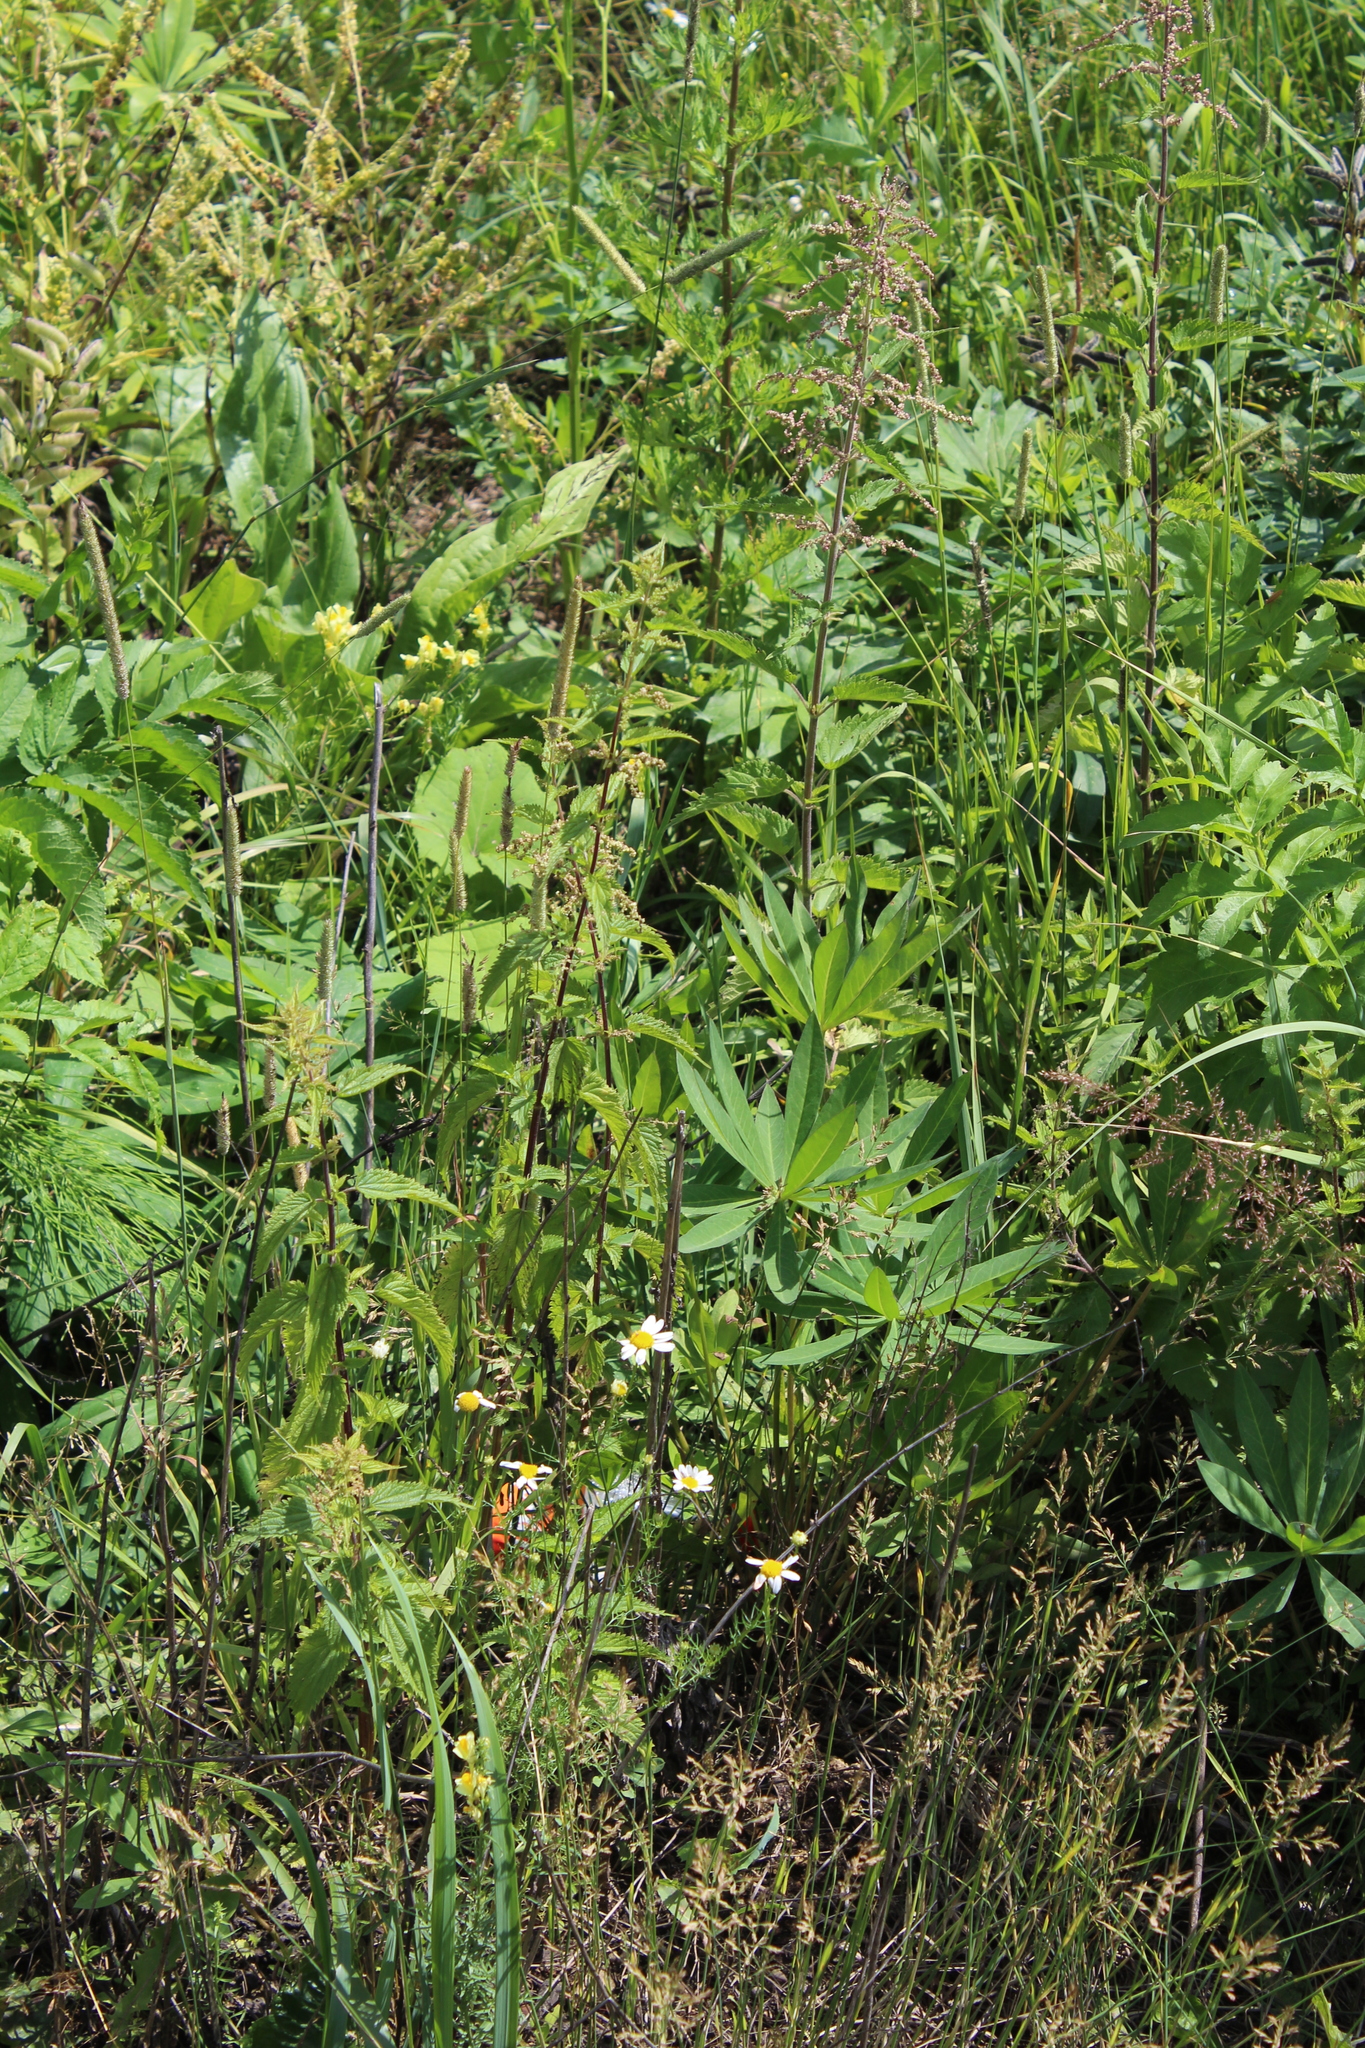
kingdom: Plantae
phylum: Tracheophyta
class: Magnoliopsida
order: Rosales
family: Urticaceae
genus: Urtica
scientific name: Urtica dioica
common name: Common nettle
